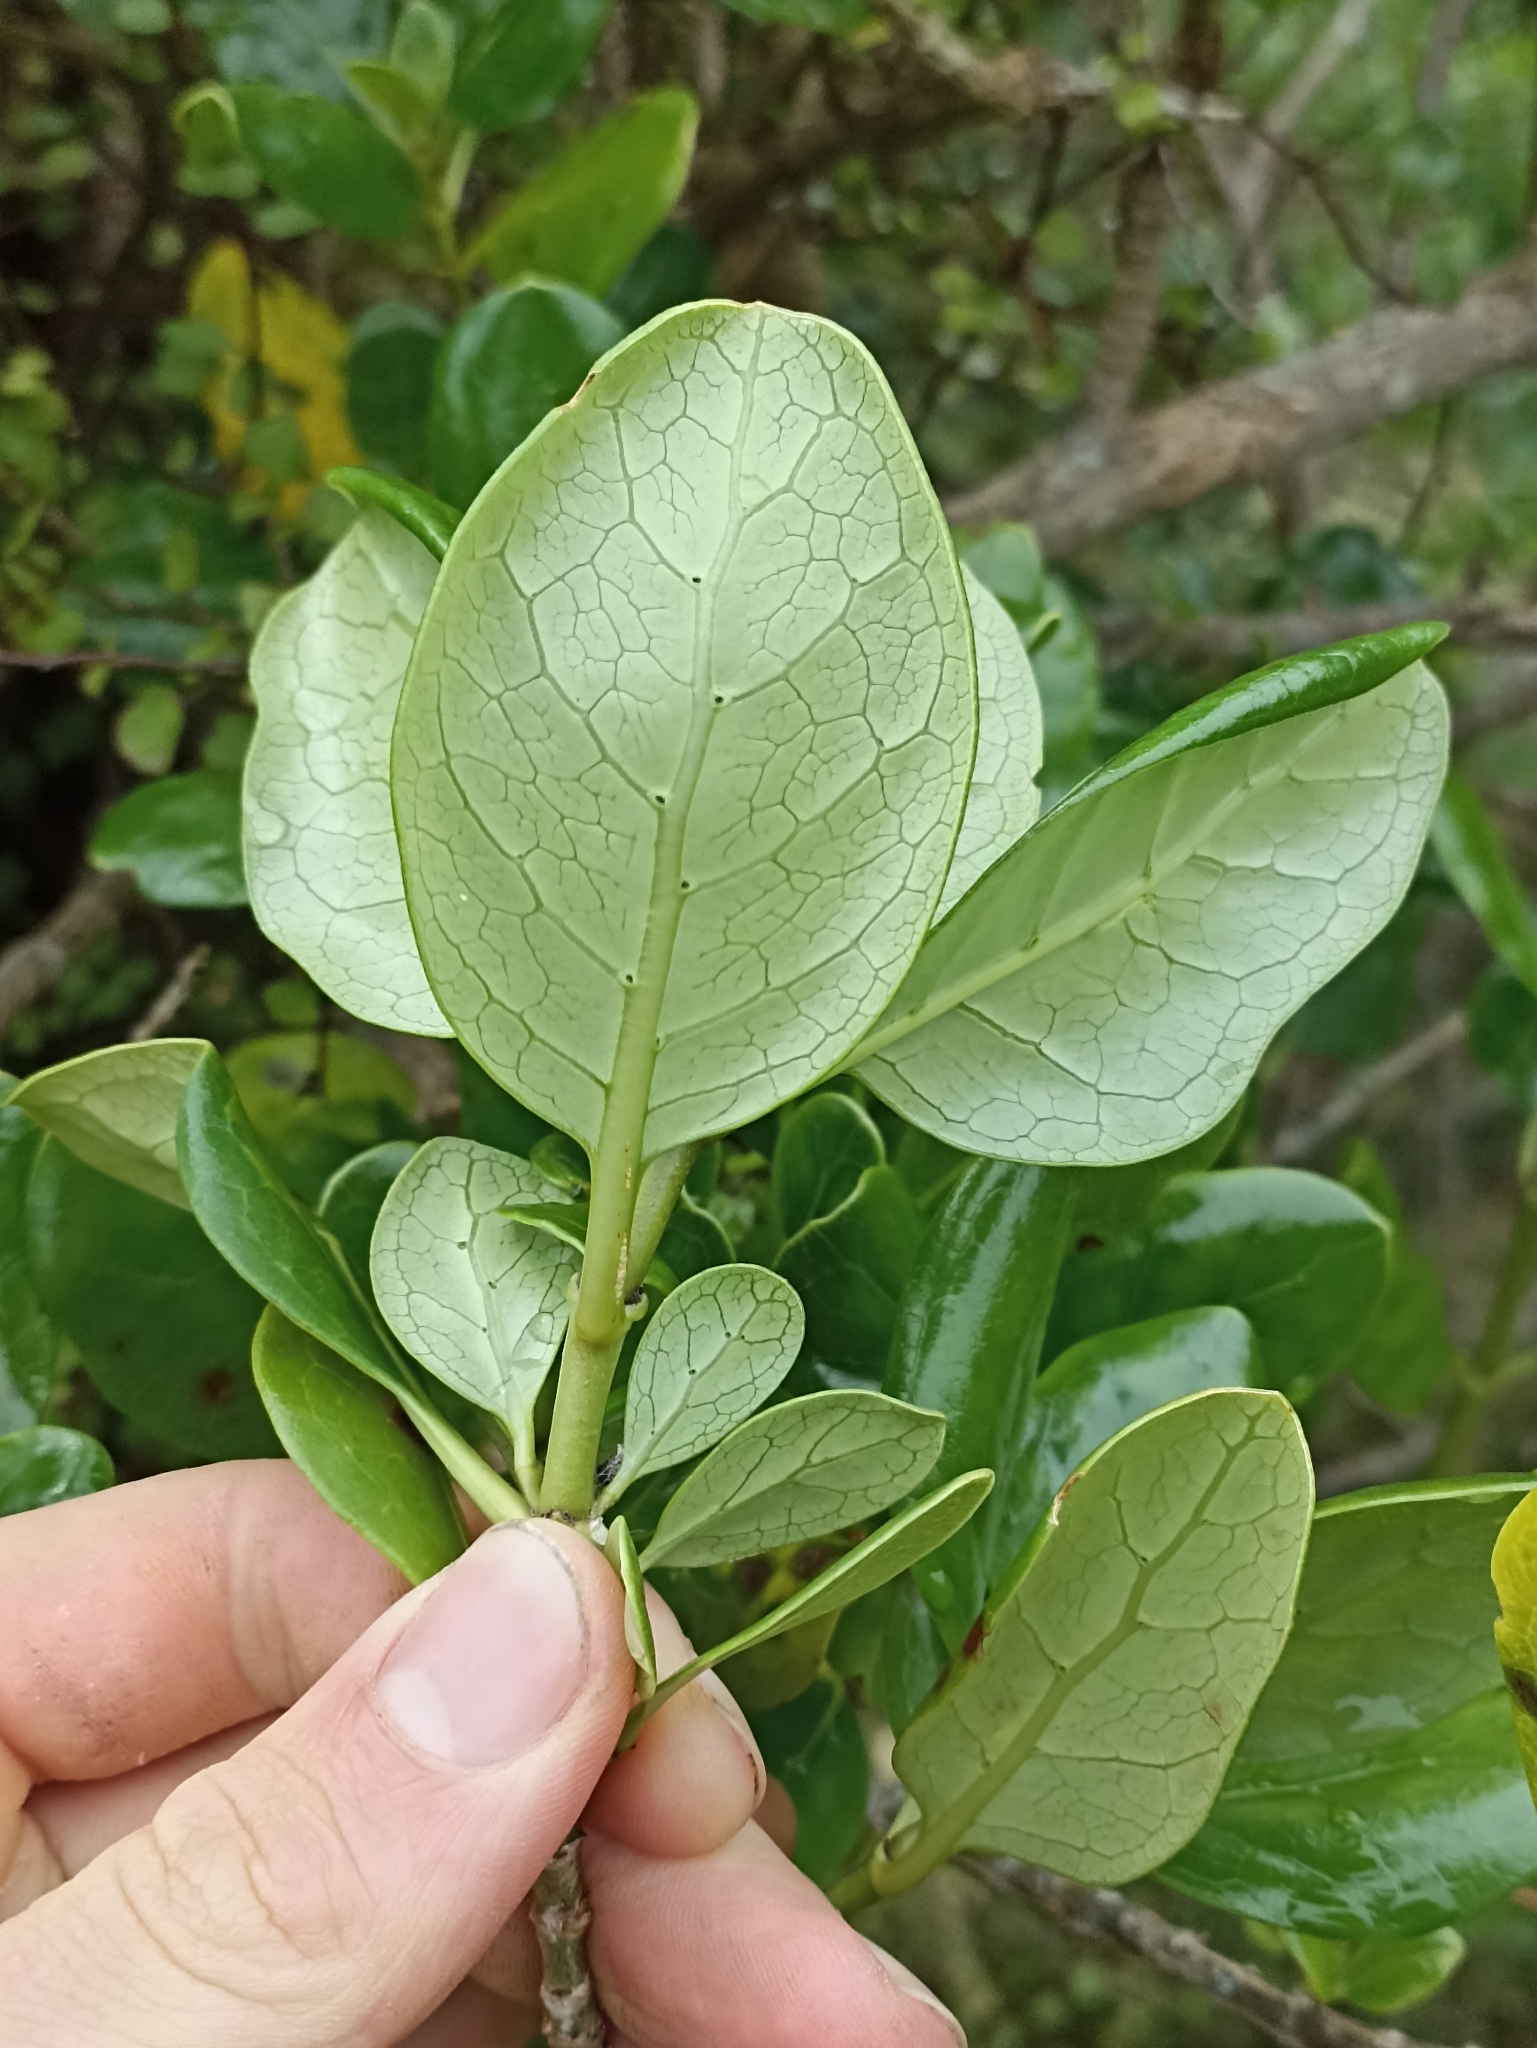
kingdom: Plantae
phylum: Tracheophyta
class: Magnoliopsida
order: Gentianales
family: Rubiaceae
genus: Coprosma
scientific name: Coprosma repens
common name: Tree bedstraw
